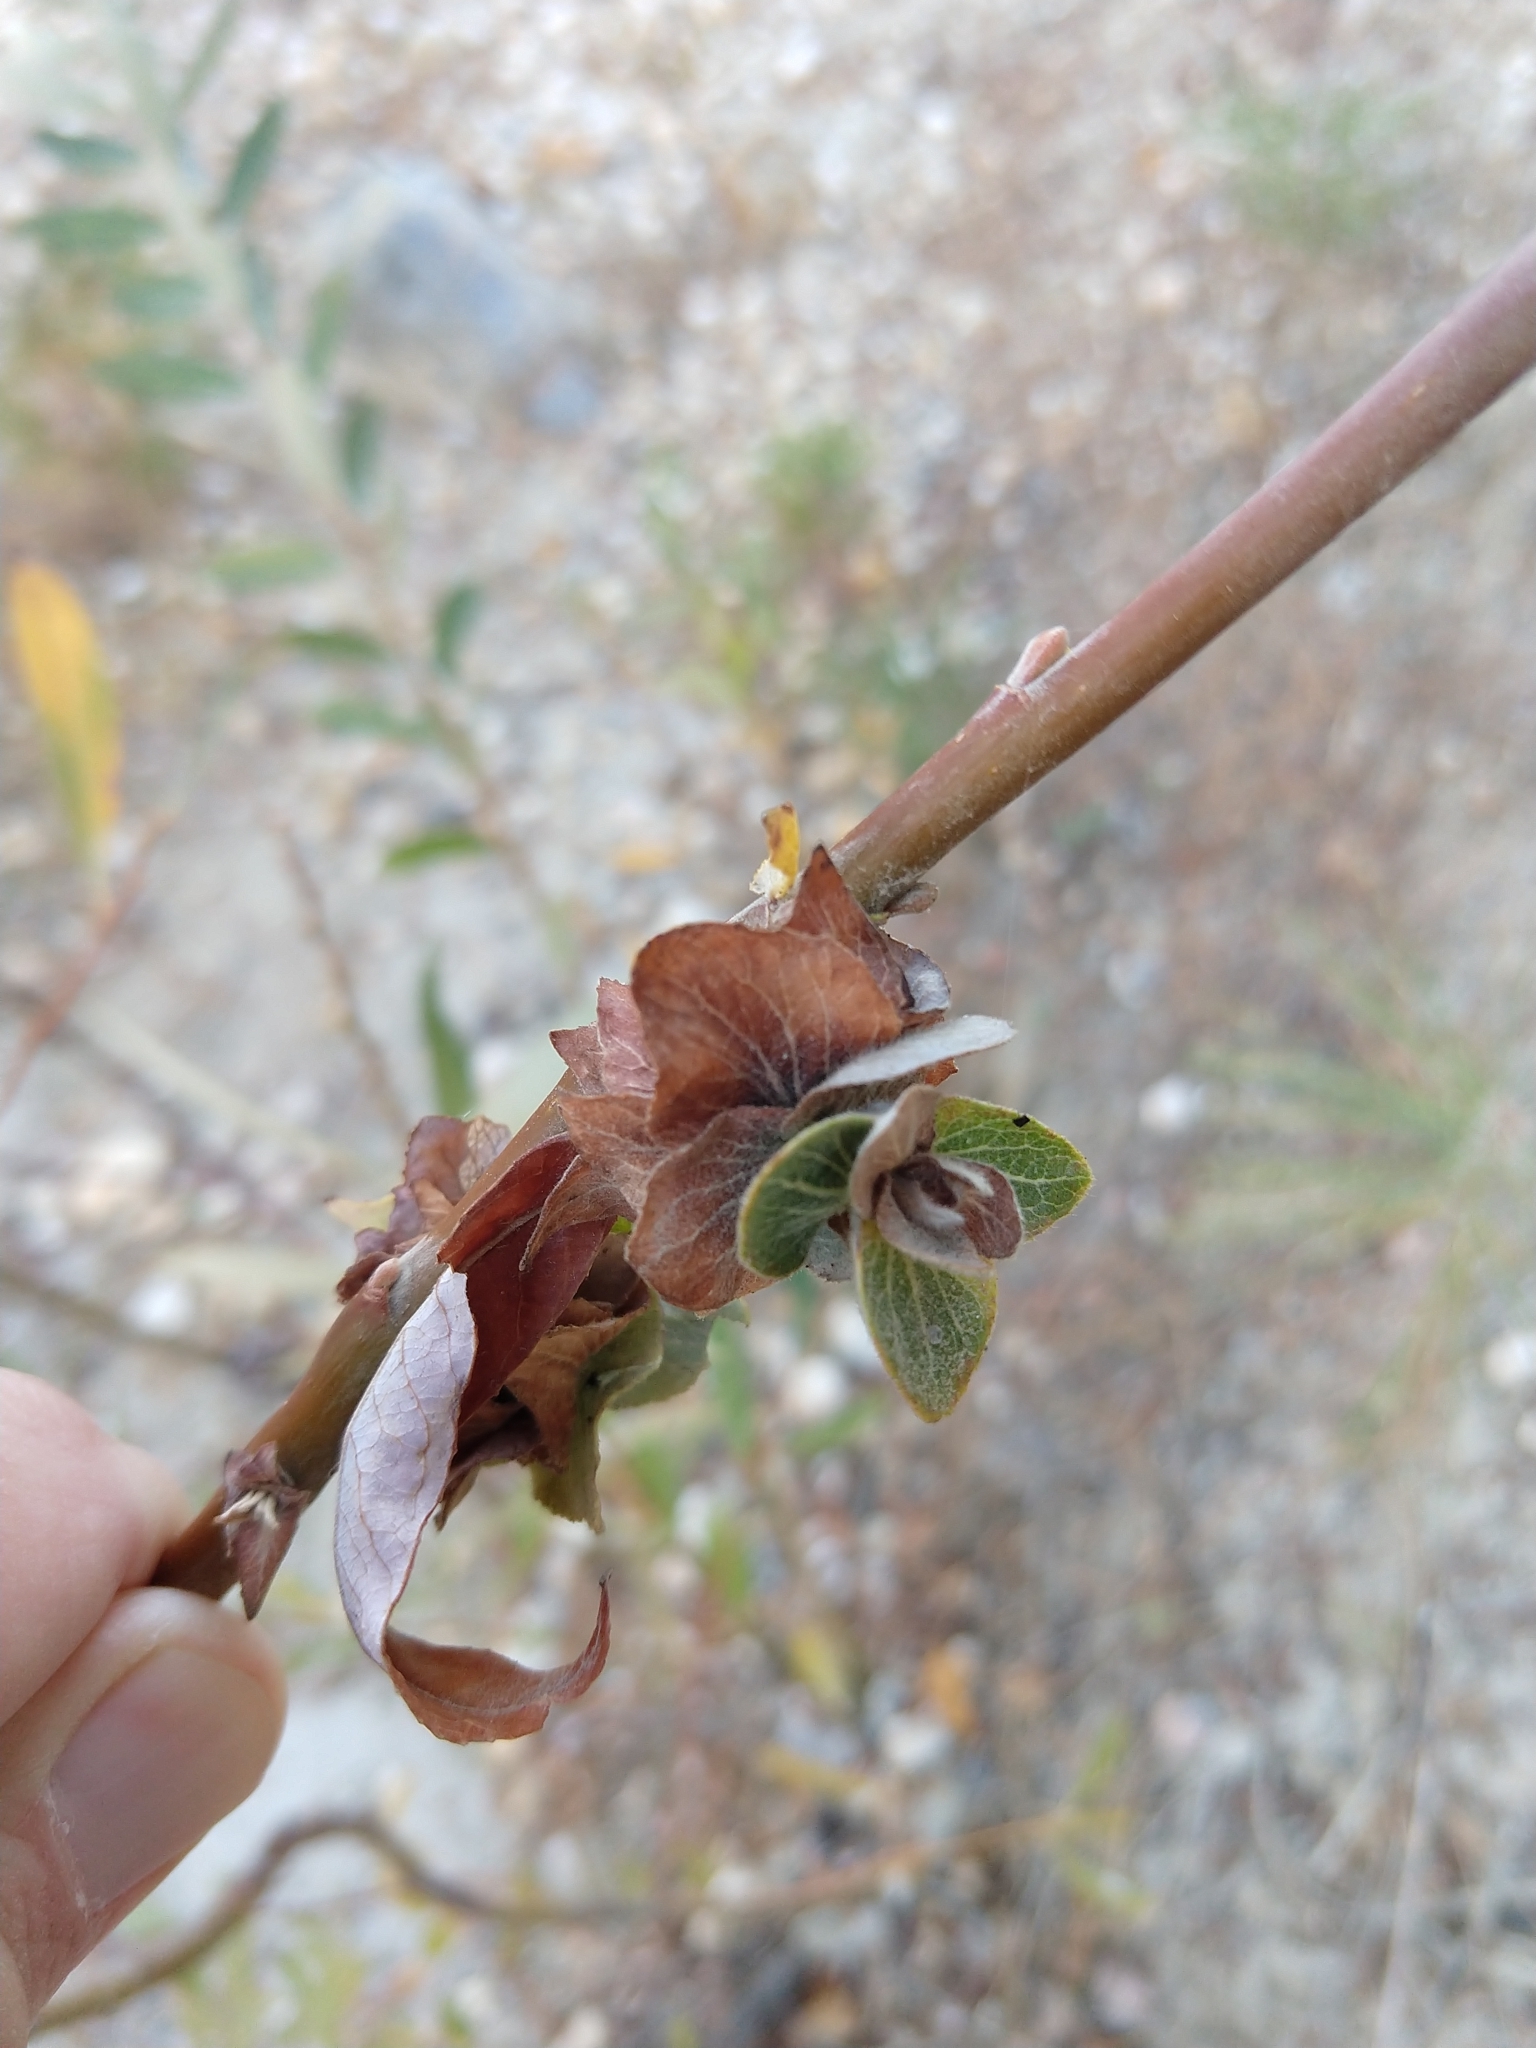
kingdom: Animalia
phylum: Arthropoda
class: Insecta
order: Diptera
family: Cecidomyiidae
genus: Rabdophaga
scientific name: Rabdophaga salicisbrassicoides
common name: Willow cabbagegall midge
